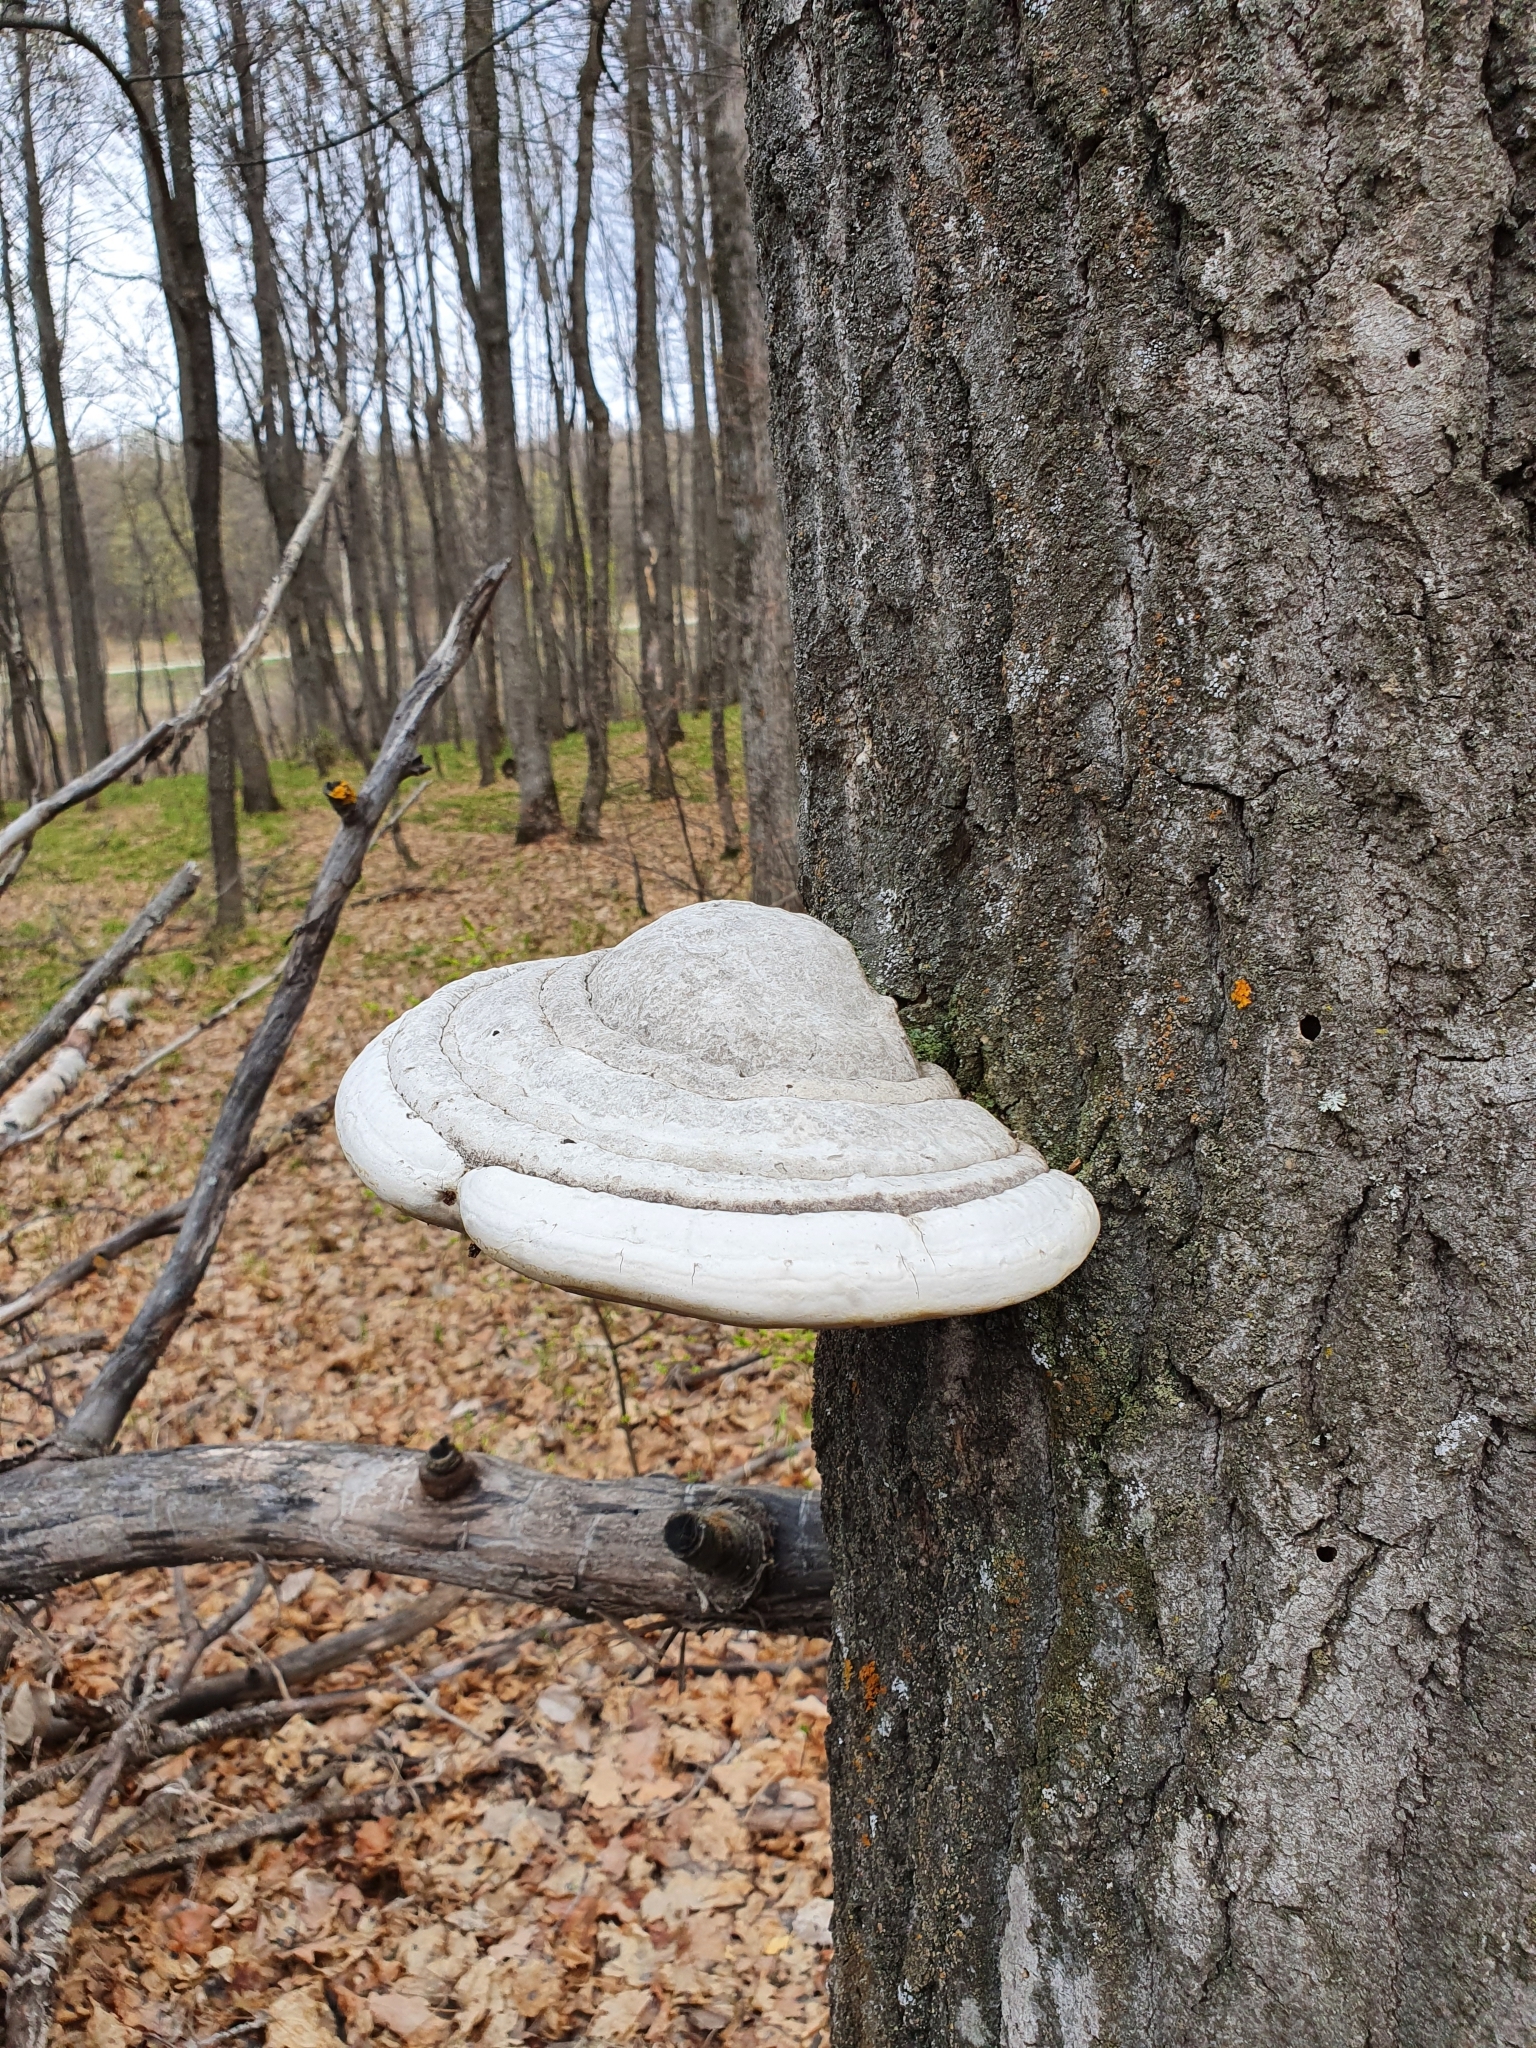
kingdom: Fungi
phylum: Basidiomycota
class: Agaricomycetes
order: Polyporales
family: Polyporaceae
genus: Fomes
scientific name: Fomes fomentarius
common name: Hoof fungus
